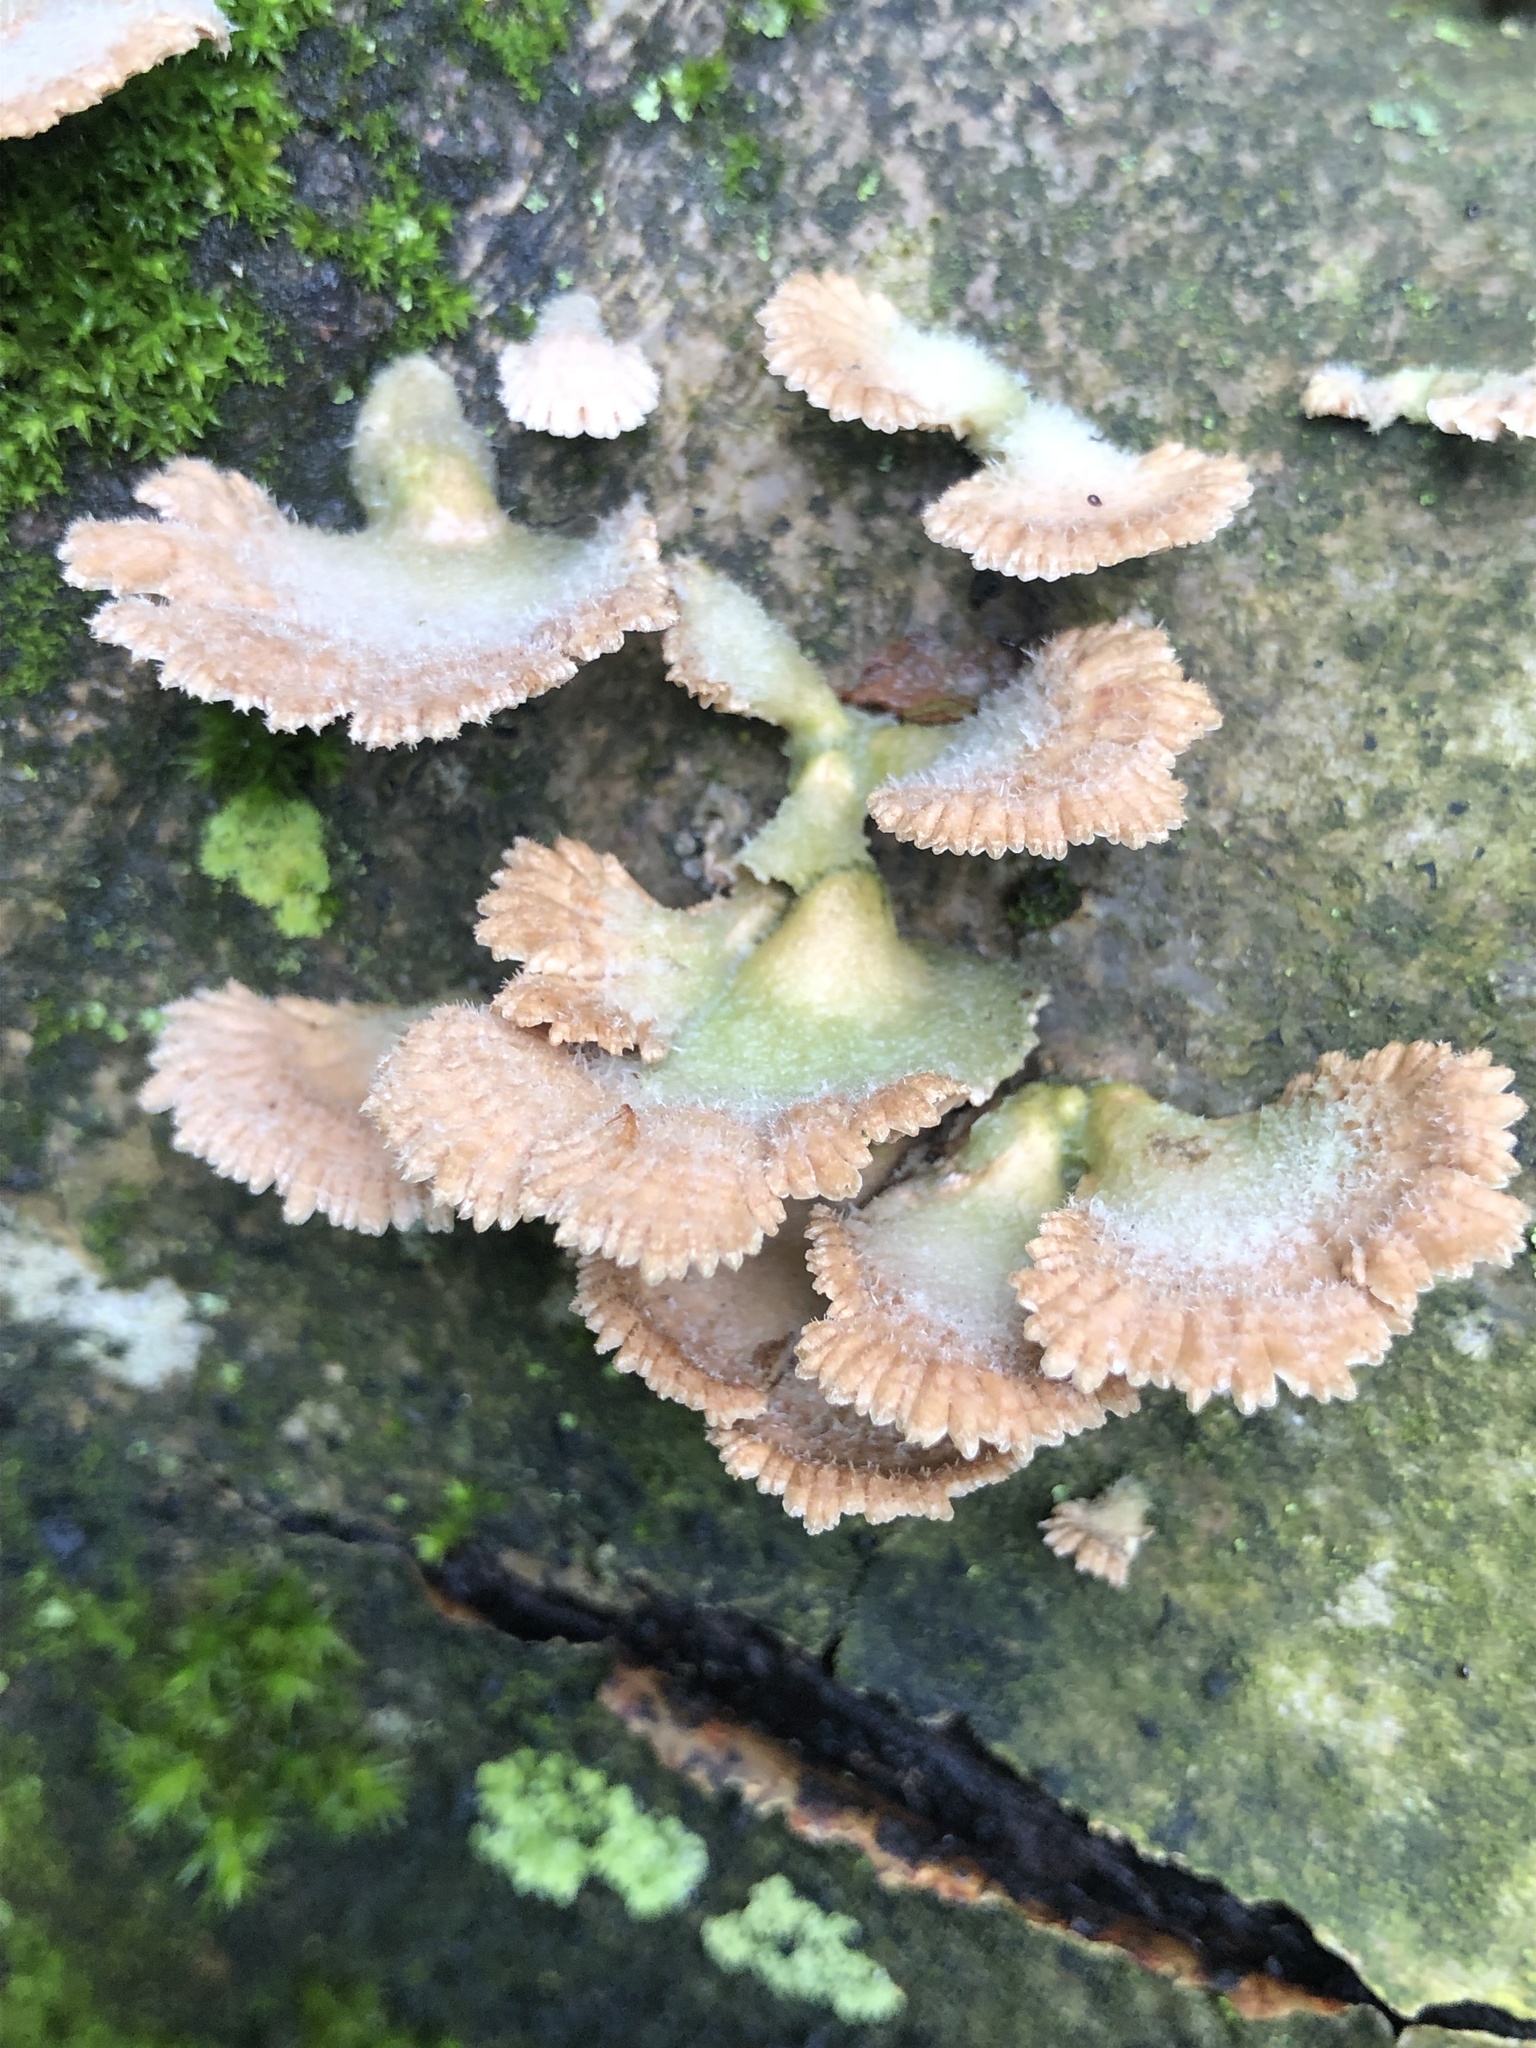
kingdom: Fungi
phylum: Basidiomycota
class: Agaricomycetes
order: Agaricales
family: Schizophyllaceae
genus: Schizophyllum
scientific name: Schizophyllum commune
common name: Common porecrust
